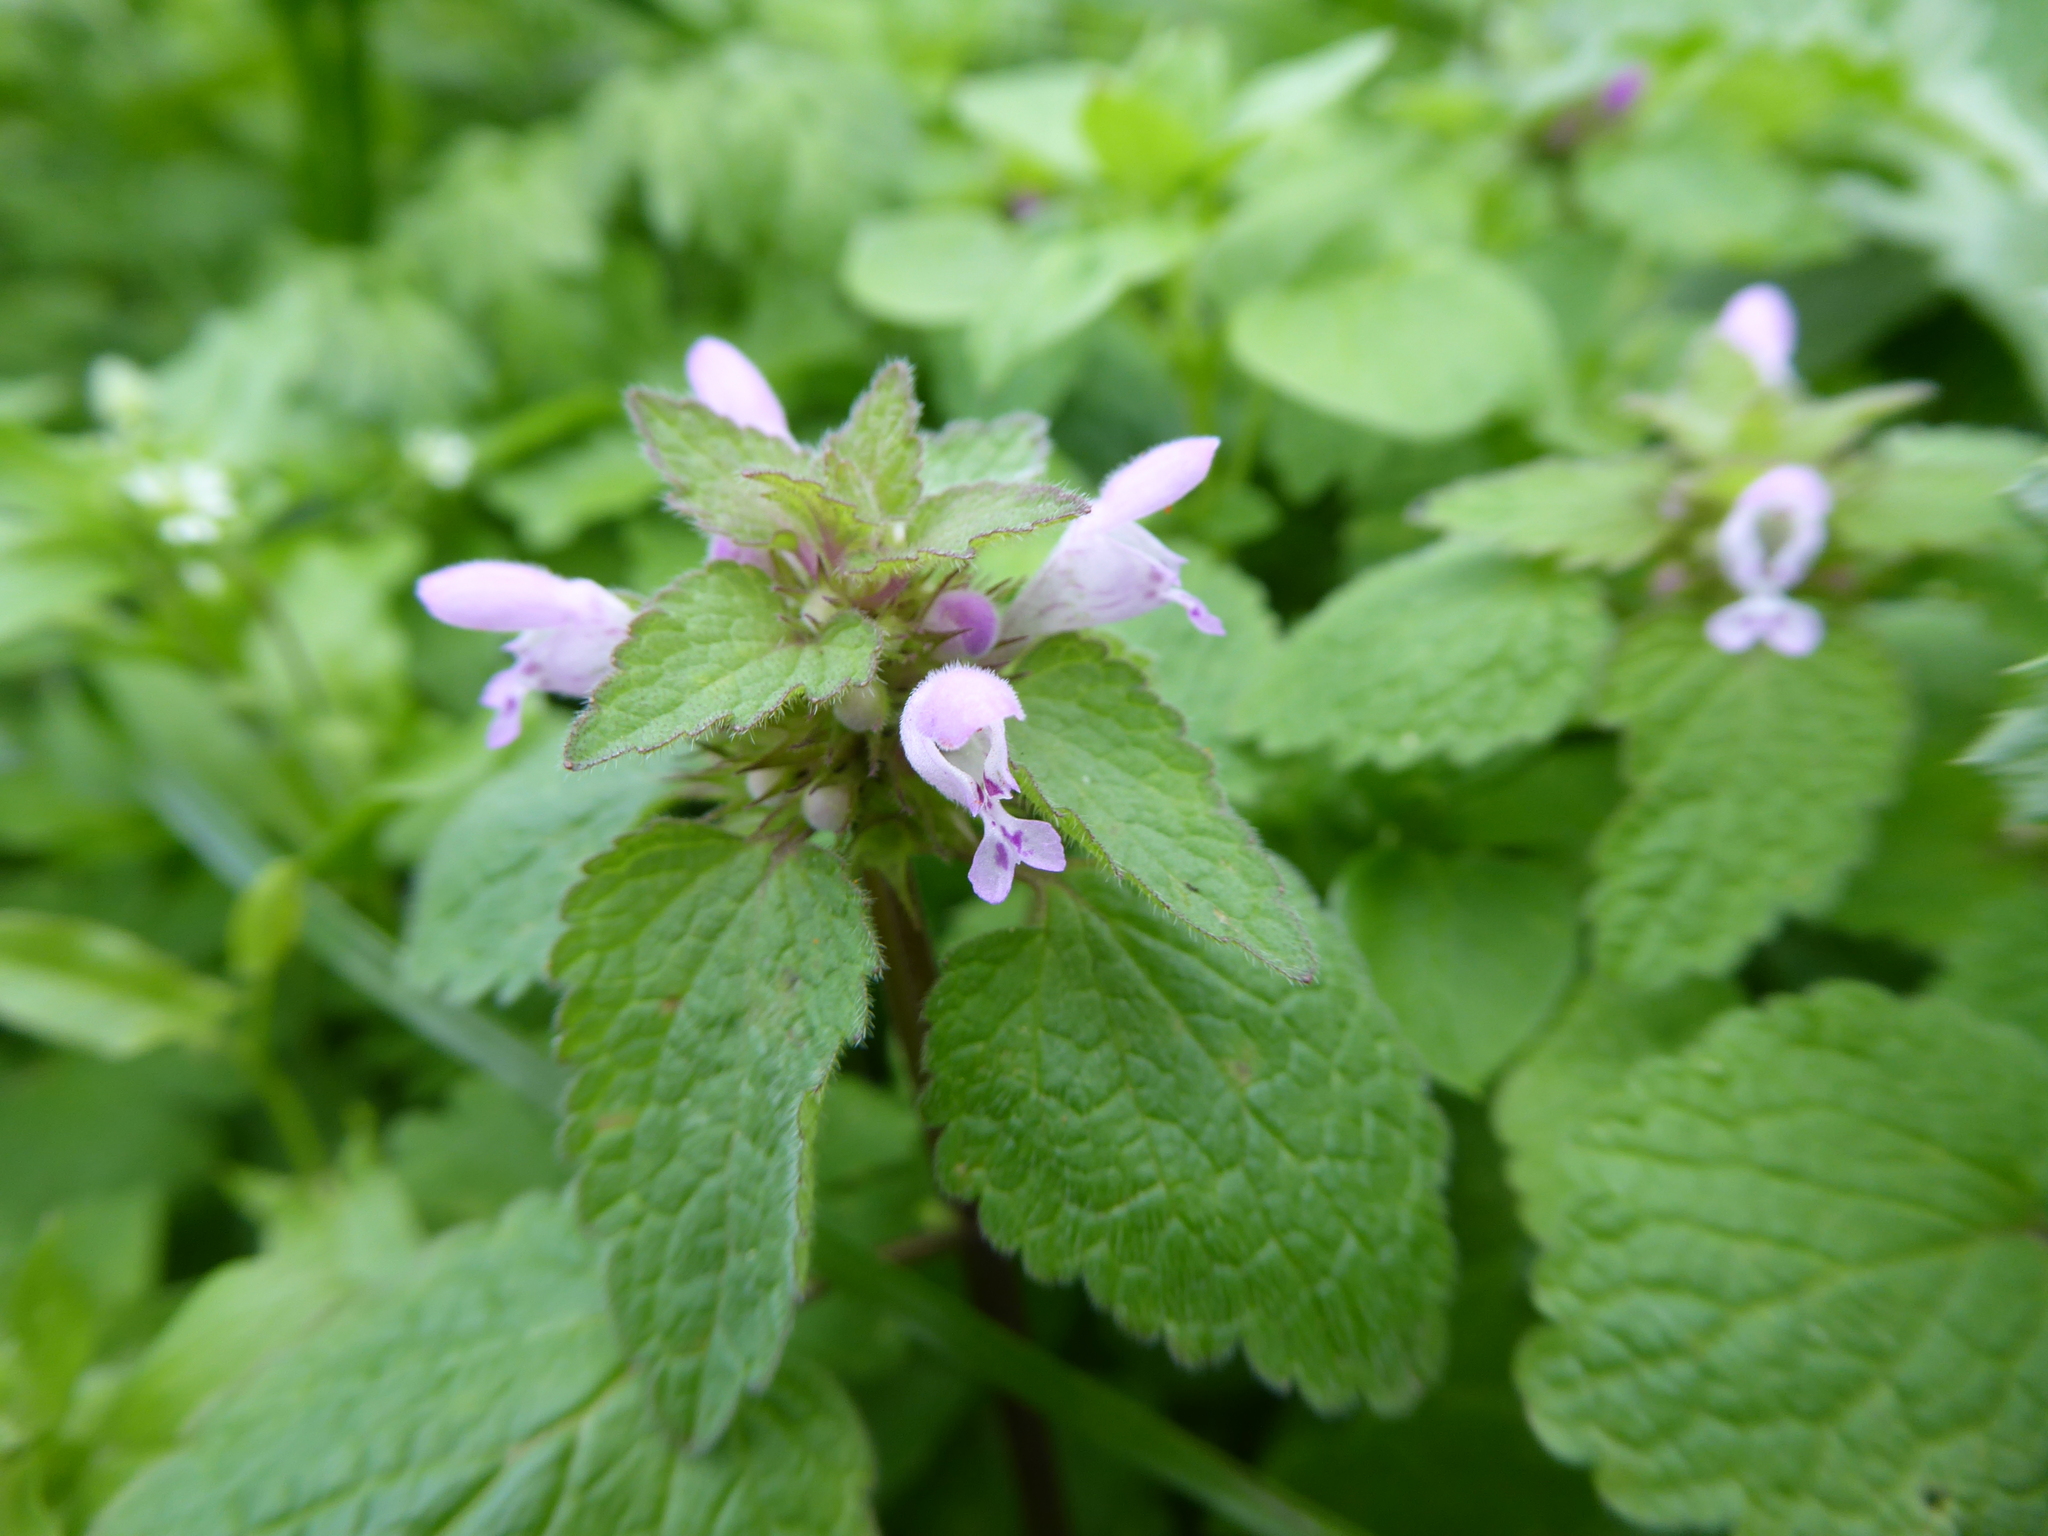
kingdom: Plantae
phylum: Tracheophyta
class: Magnoliopsida
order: Lamiales
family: Lamiaceae
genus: Lamium
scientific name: Lamium purpureum
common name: Red dead-nettle
